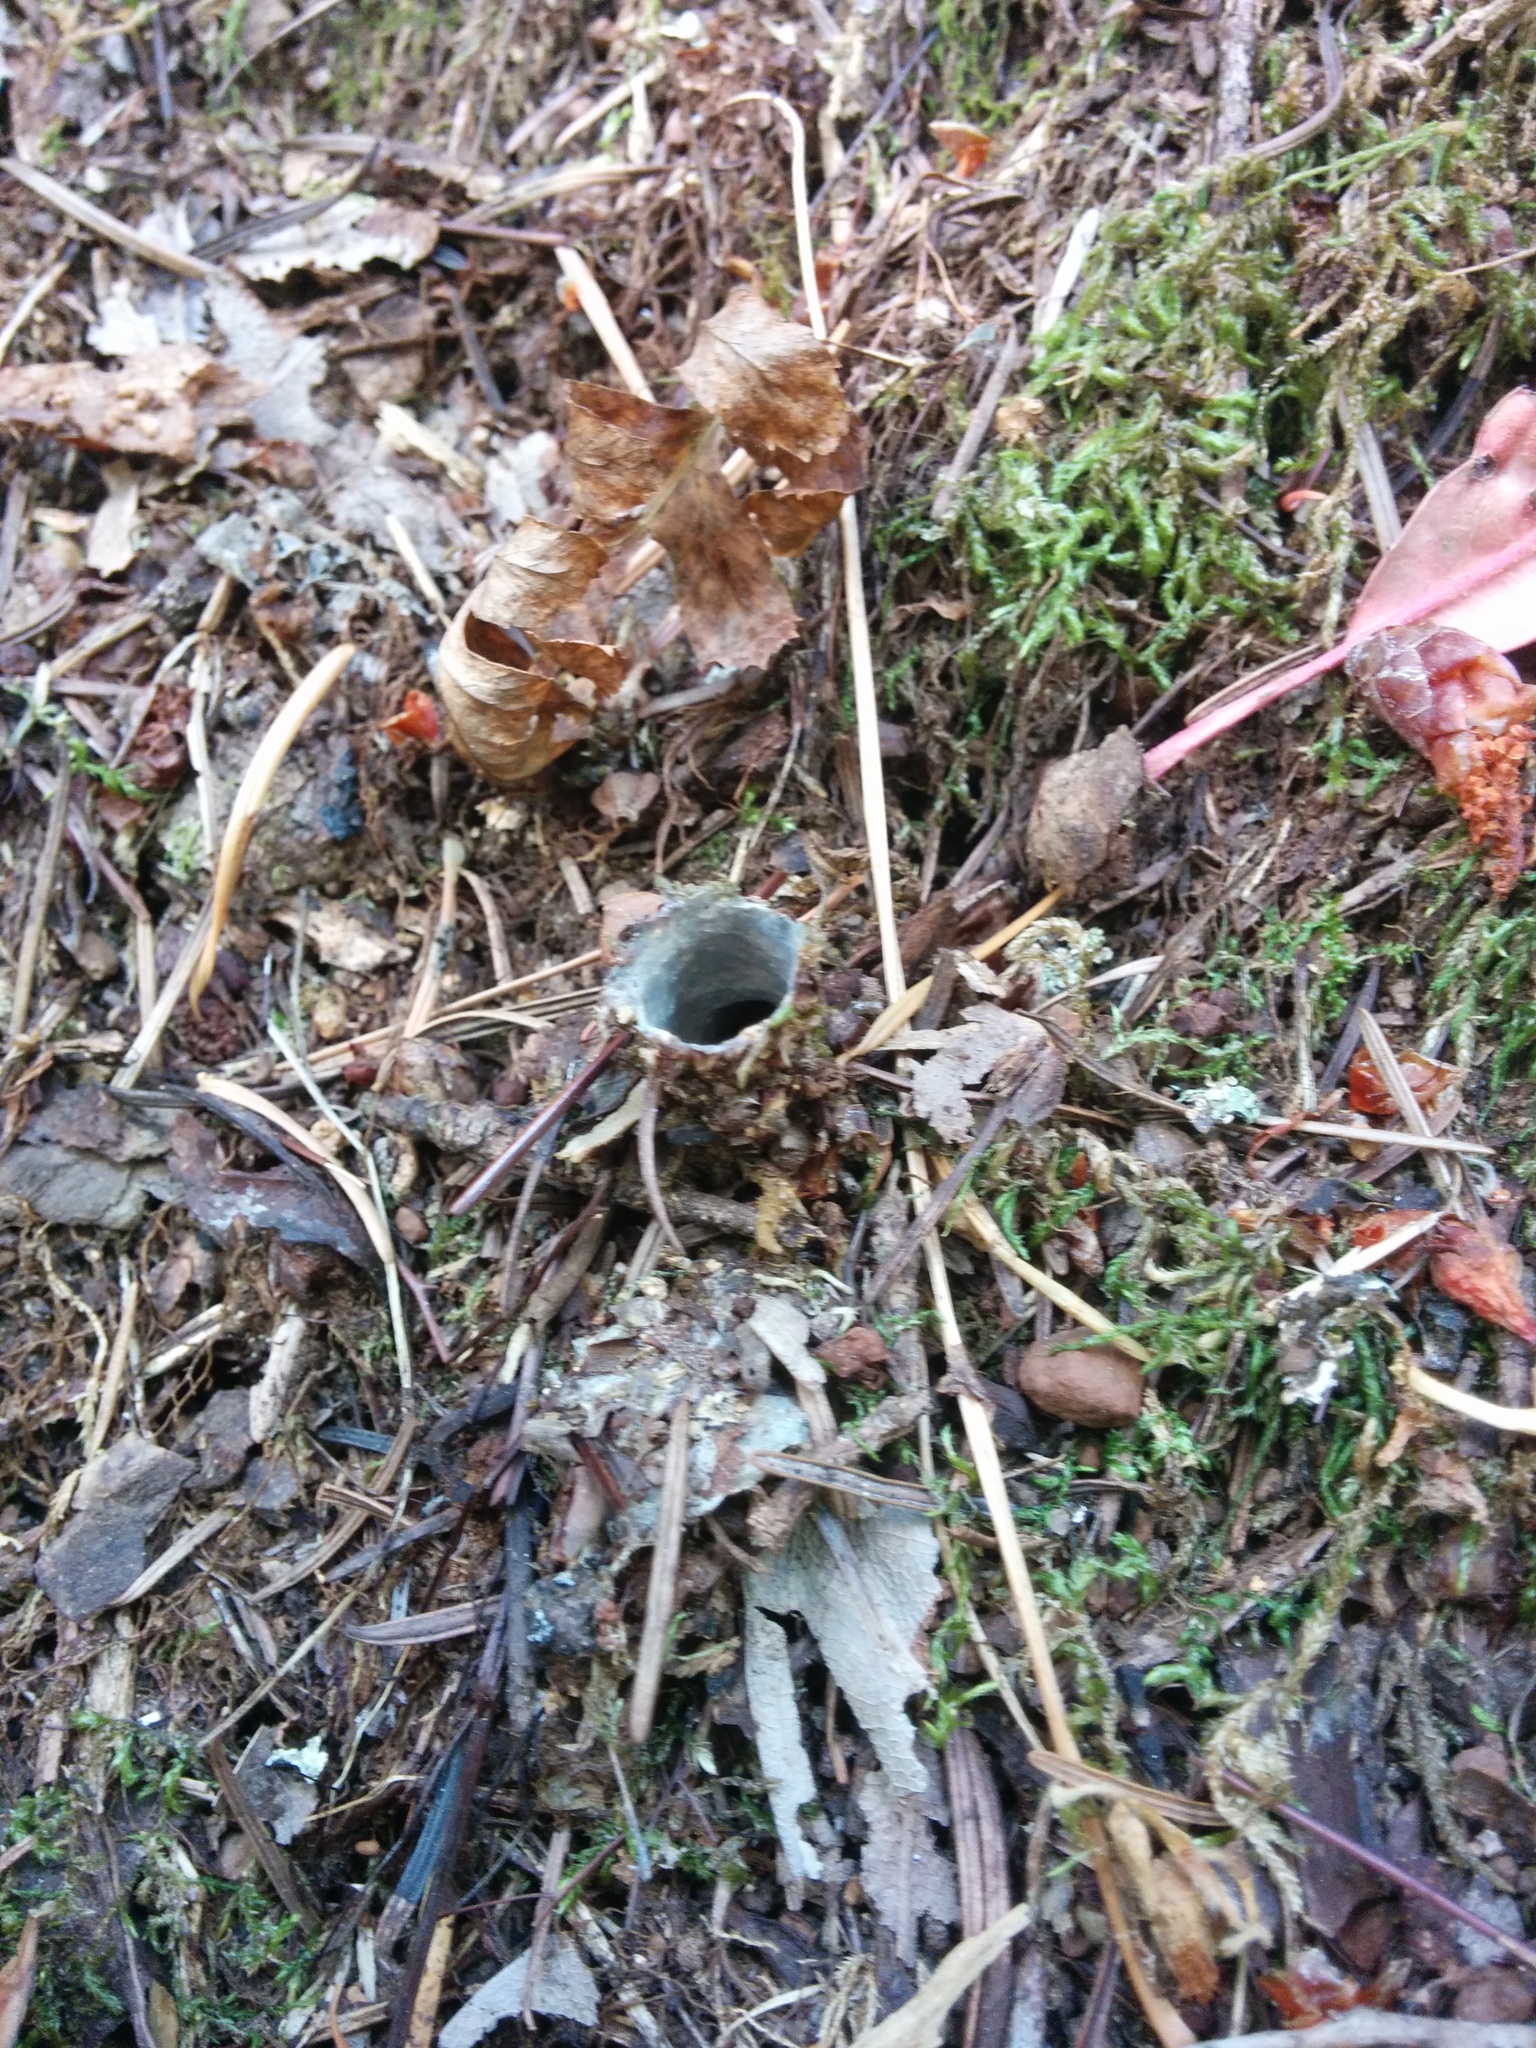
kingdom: Animalia
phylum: Arthropoda
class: Arachnida
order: Araneae
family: Antrodiaetidae
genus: Atypoides
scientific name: Atypoides riversi
